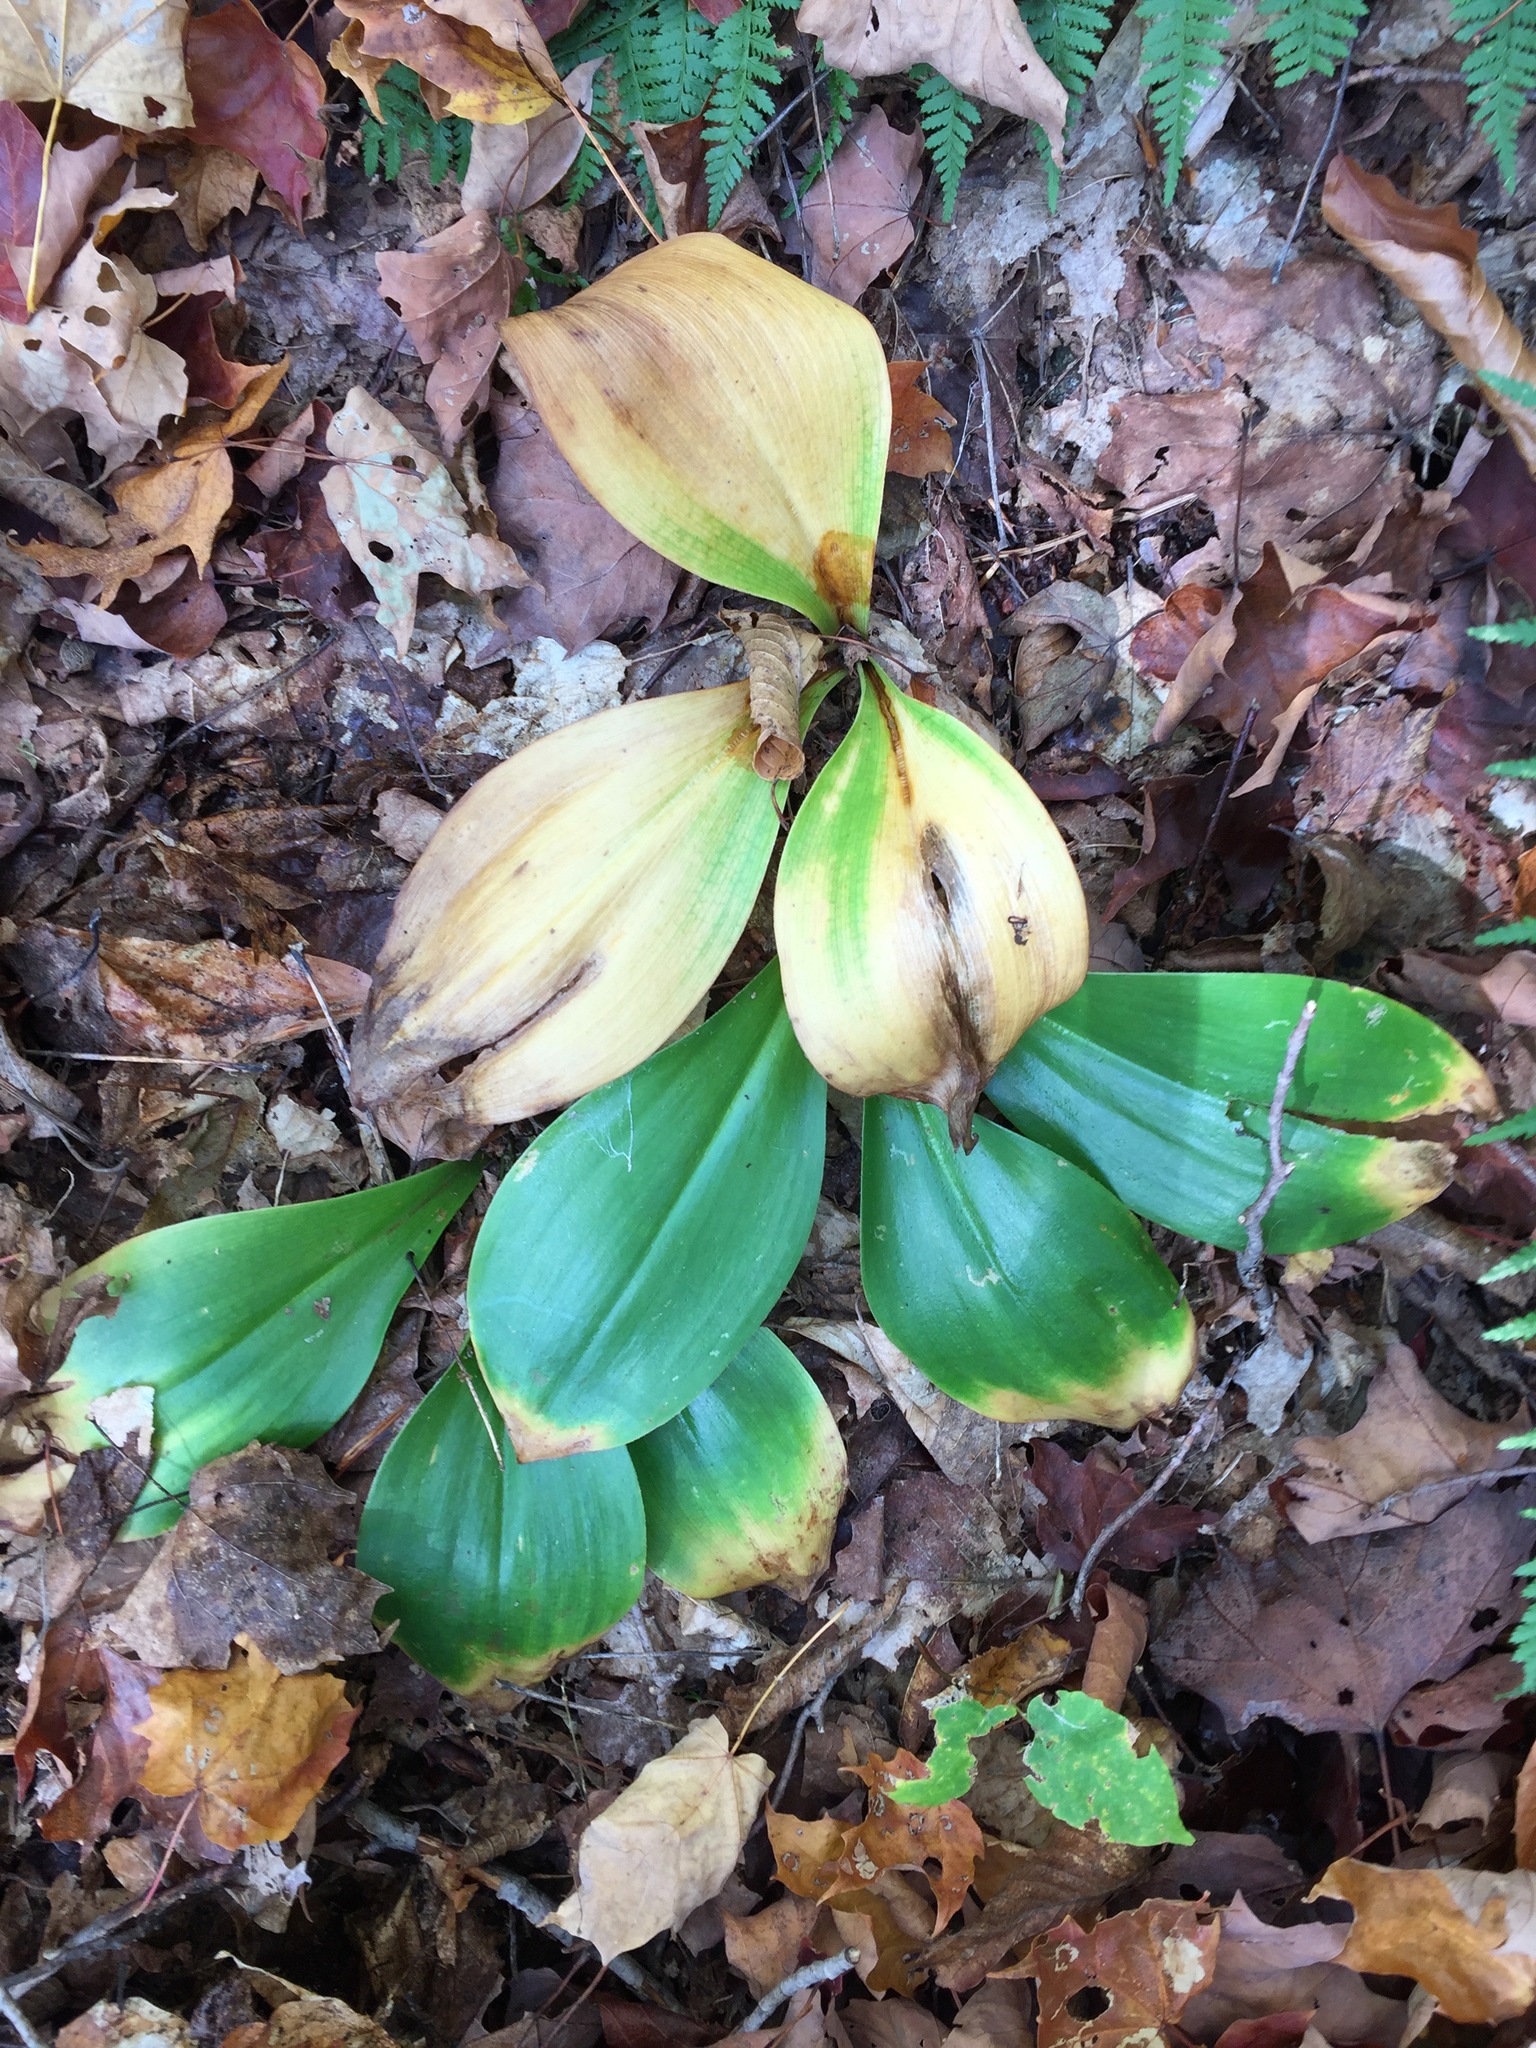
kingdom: Plantae
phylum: Tracheophyta
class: Liliopsida
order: Liliales
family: Liliaceae
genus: Clintonia
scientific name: Clintonia borealis
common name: Yellow clintonia
